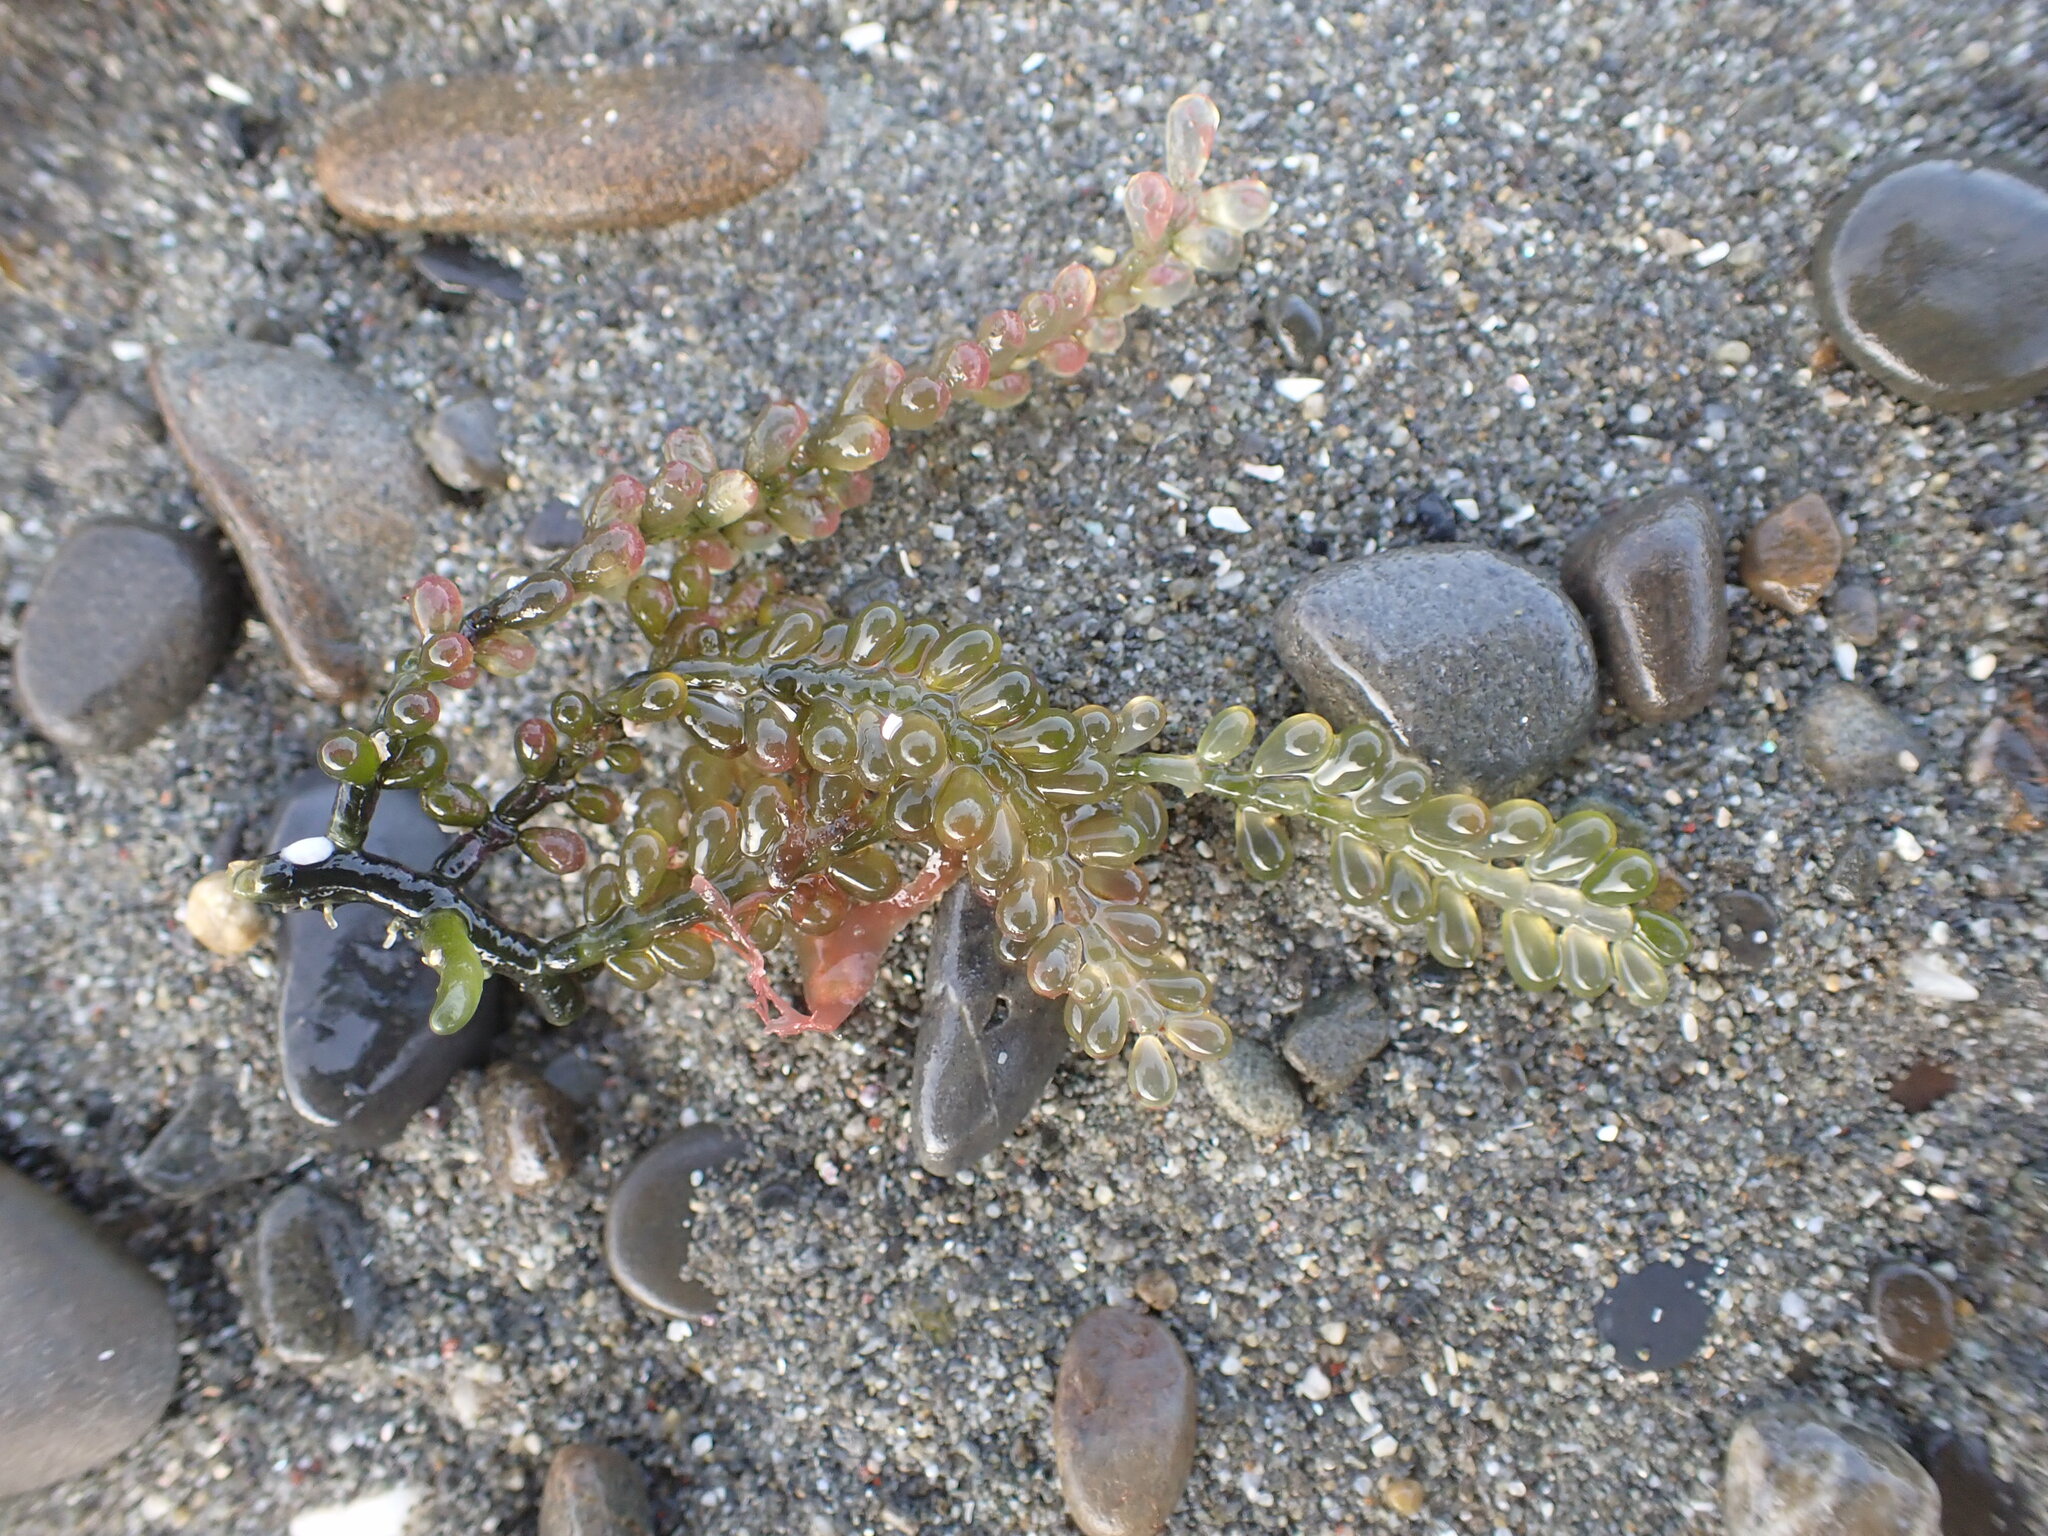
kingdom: Plantae
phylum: Chlorophyta
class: Ulvophyceae
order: Bryopsidales
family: Caulerpaceae
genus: Caulerpa
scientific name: Caulerpa geminata
